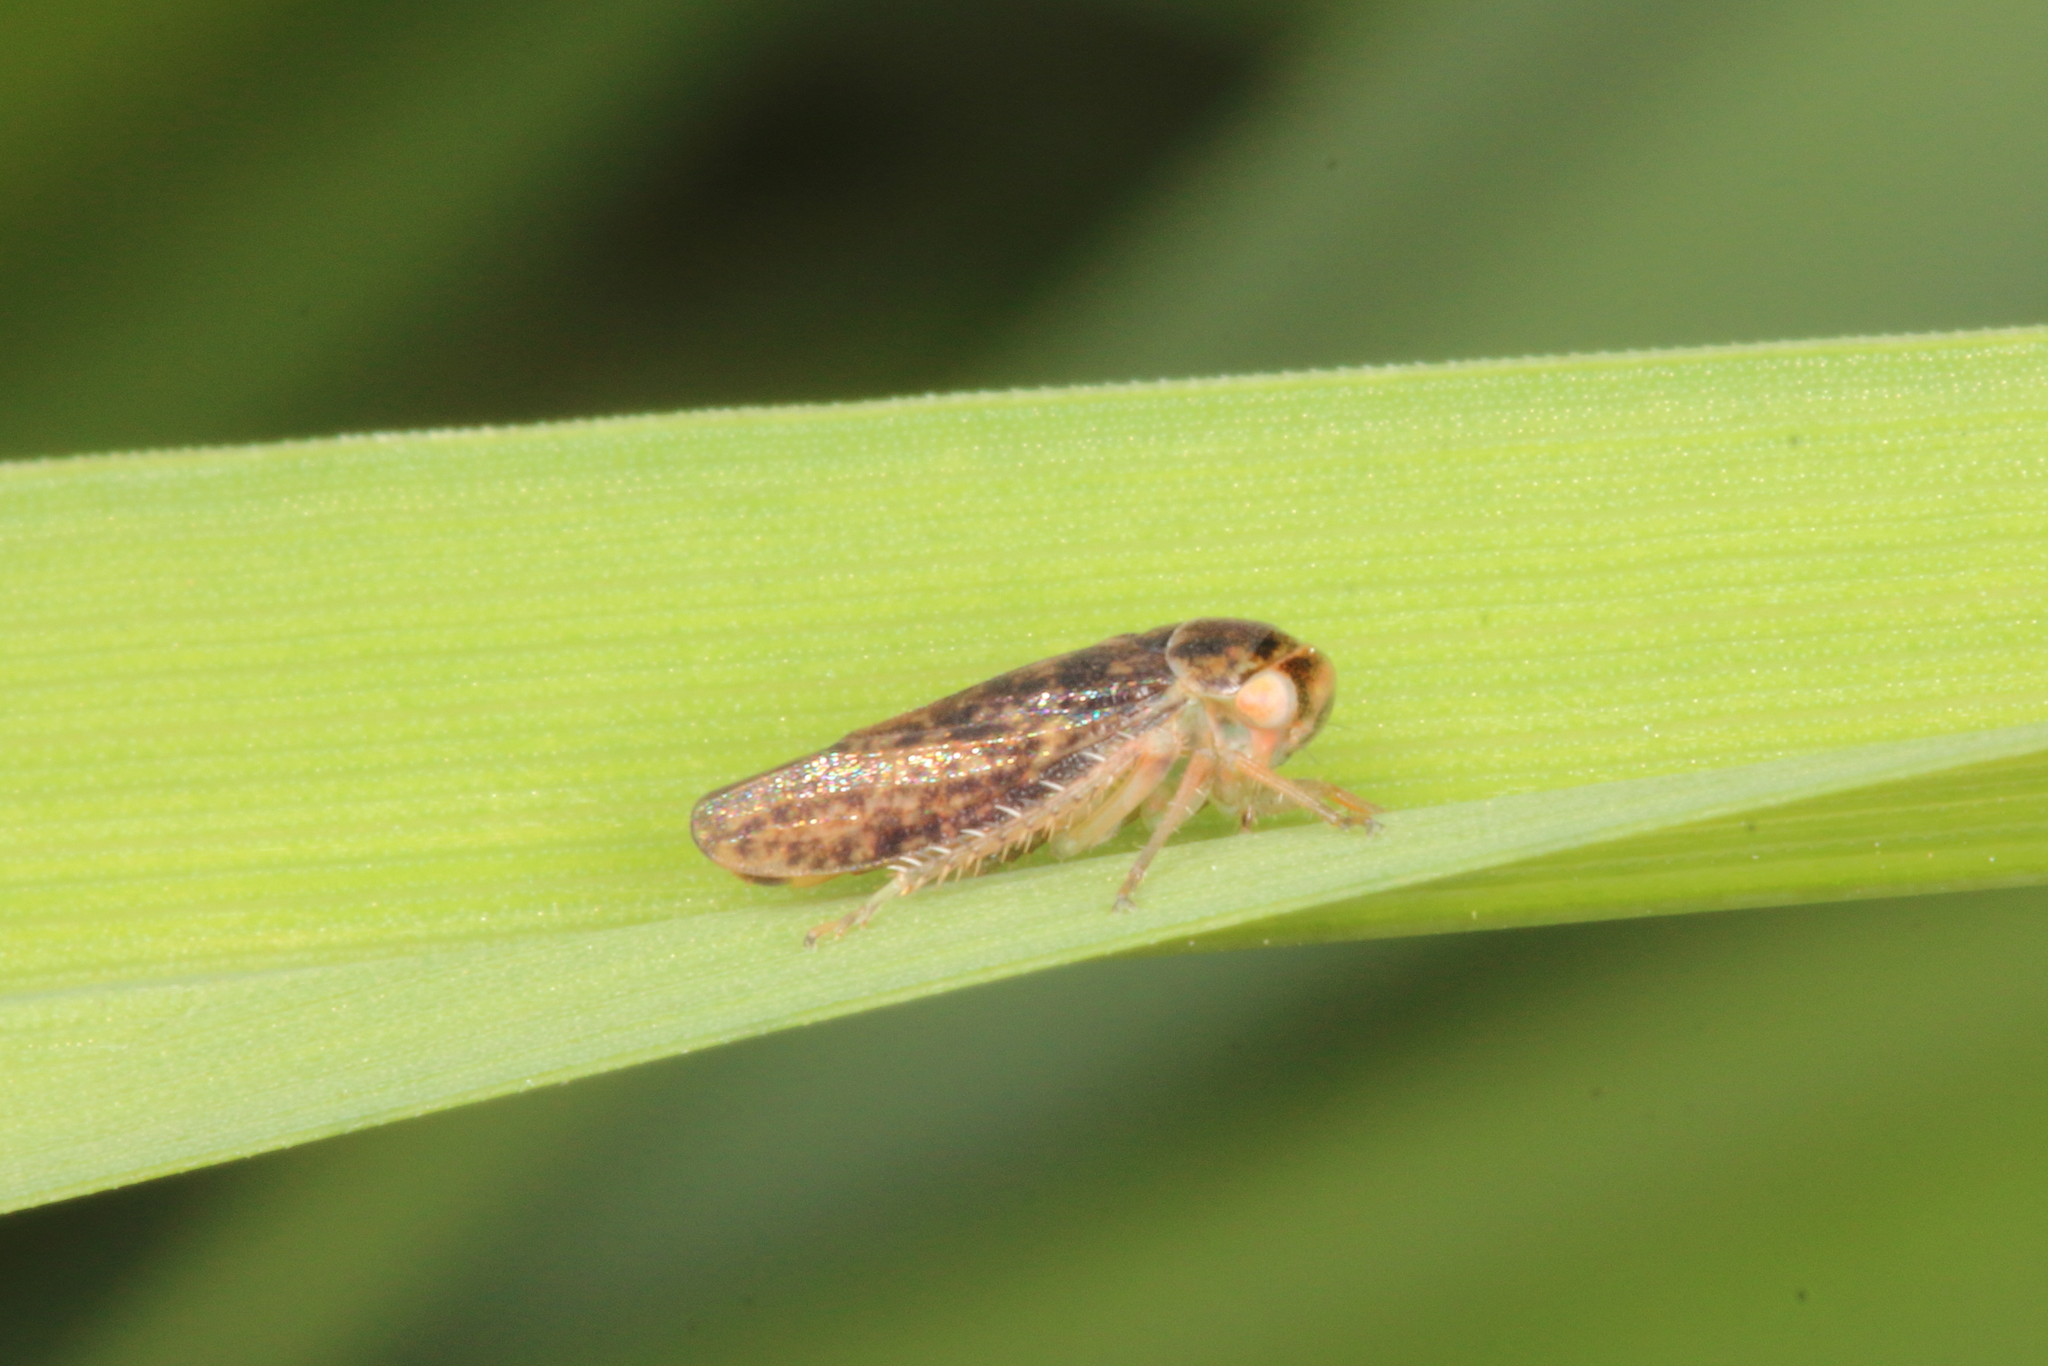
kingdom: Animalia
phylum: Arthropoda
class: Insecta
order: Hemiptera
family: Cicadellidae
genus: Rhytidodus
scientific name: Rhytidodus decimusquartus
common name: Leafhopper
